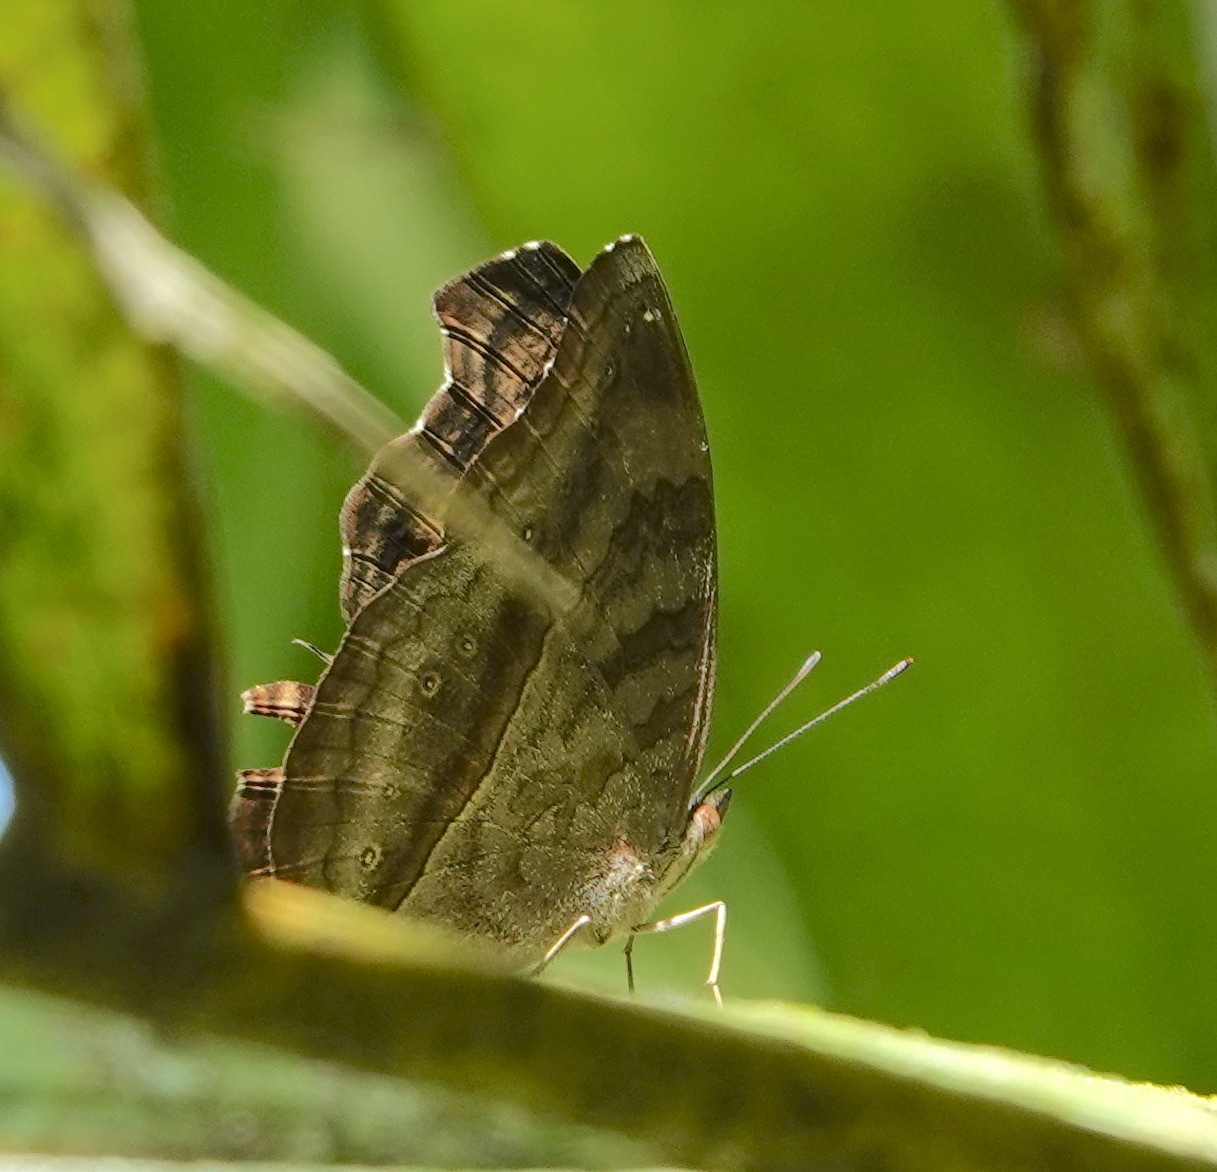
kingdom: Animalia
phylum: Arthropoda
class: Insecta
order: Lepidoptera
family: Nymphalidae
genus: Junonia
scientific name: Junonia iphita
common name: Chocolate pansy
